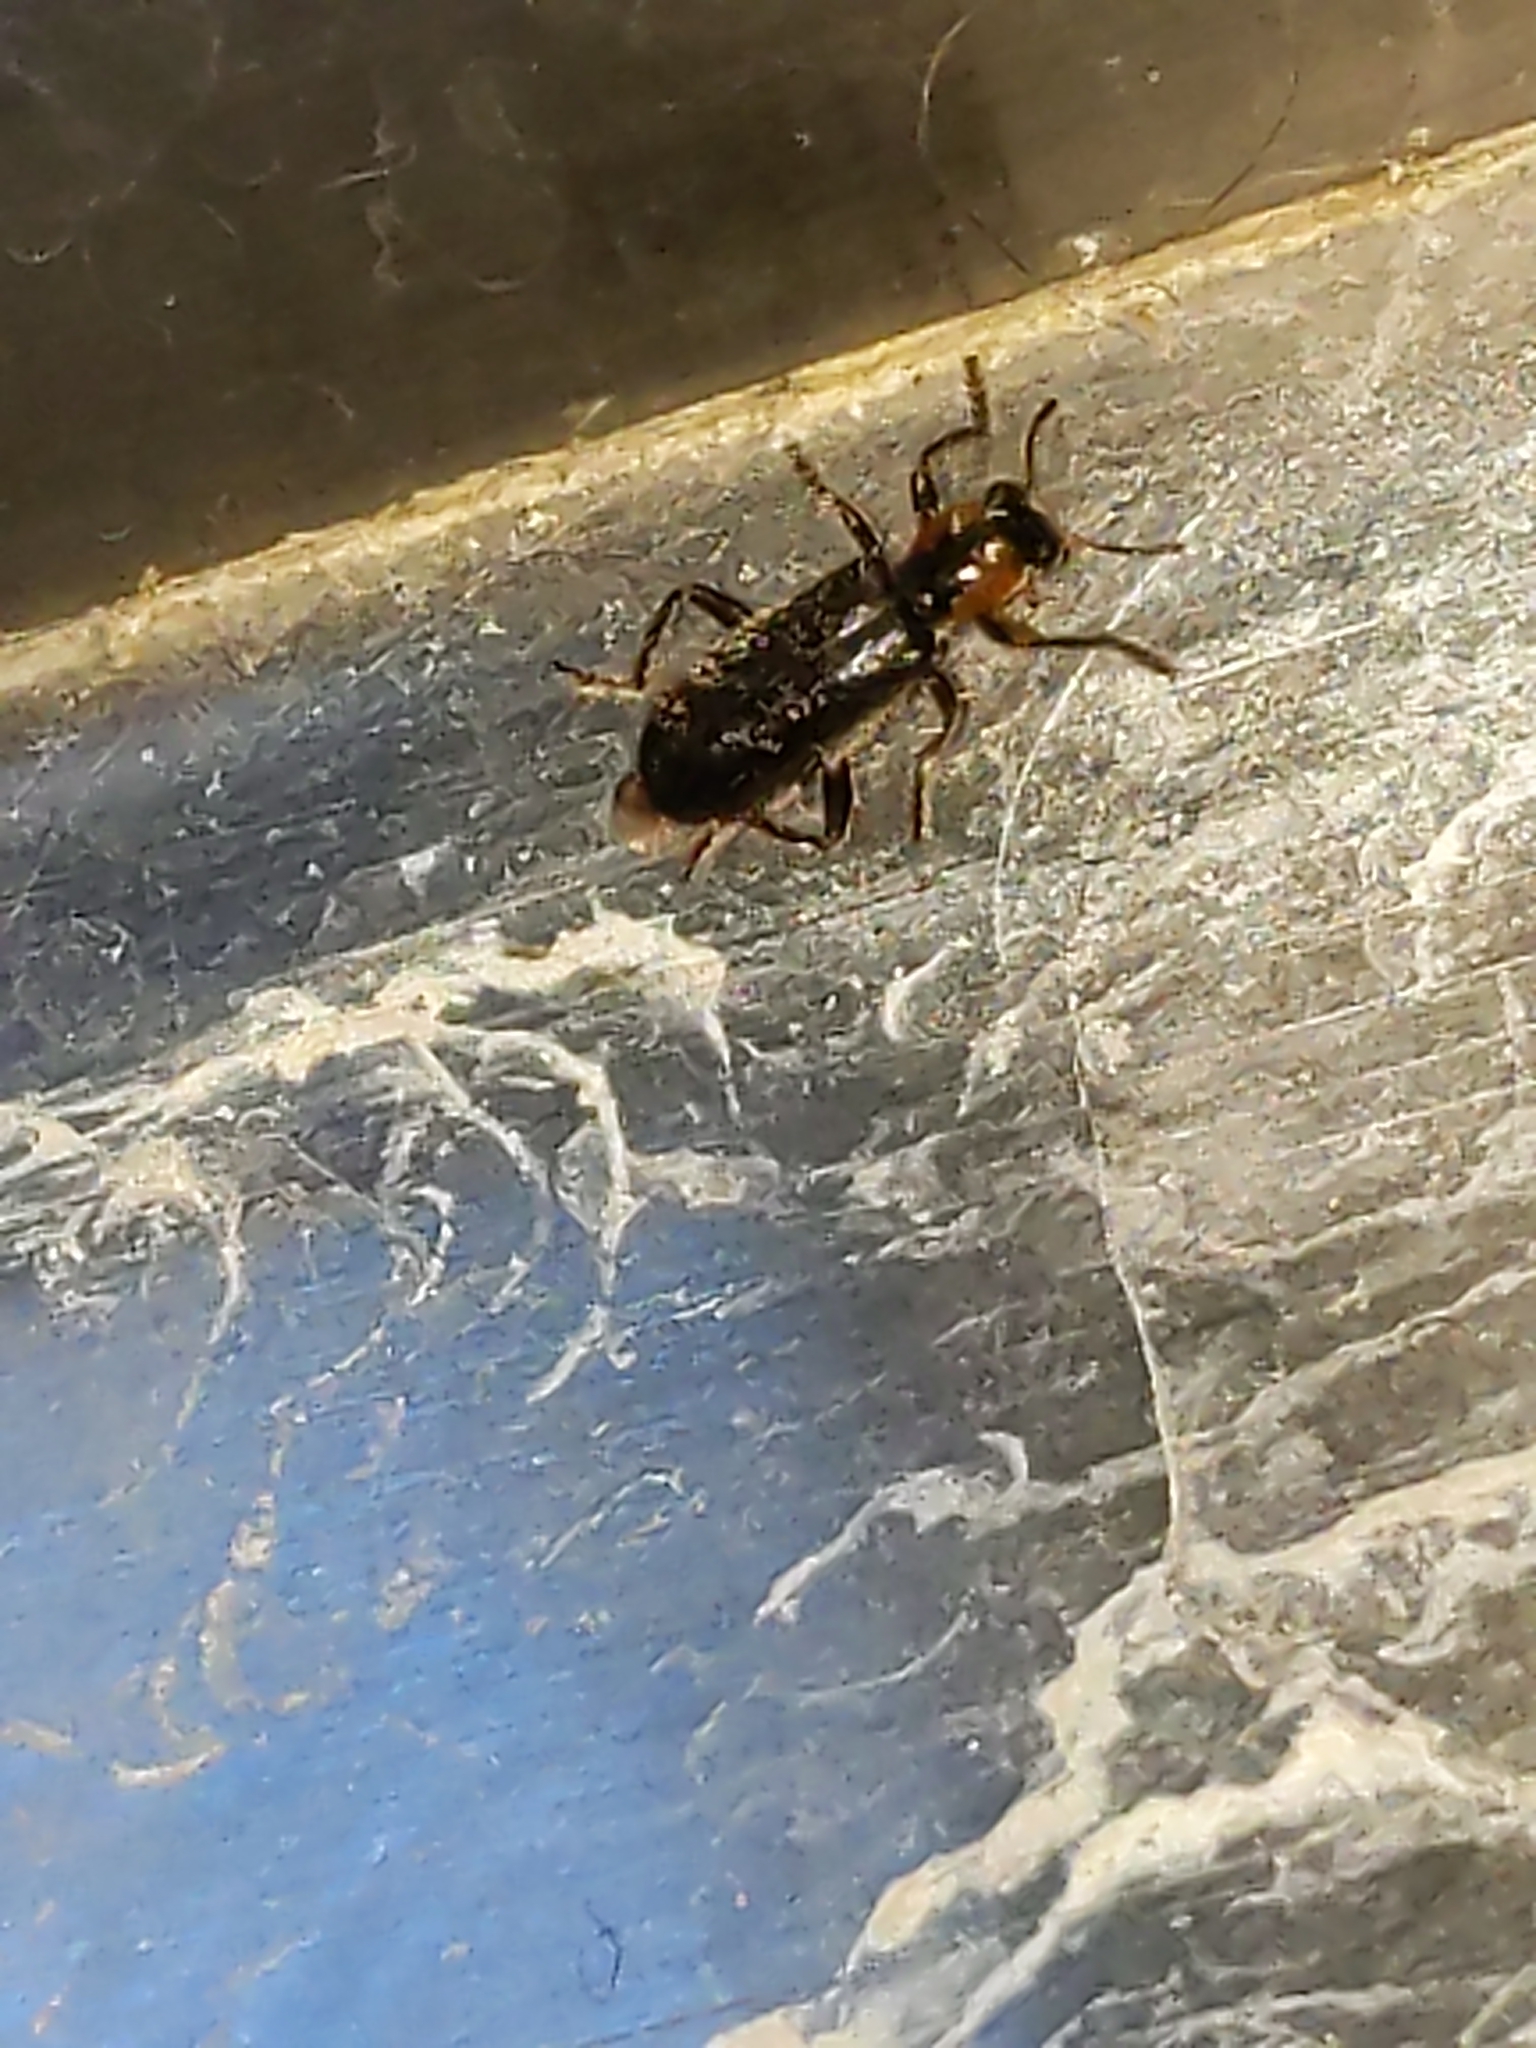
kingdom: Animalia
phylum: Arthropoda
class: Insecta
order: Coleoptera
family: Cleridae
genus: Placopterus
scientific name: Placopterus thoracicus
